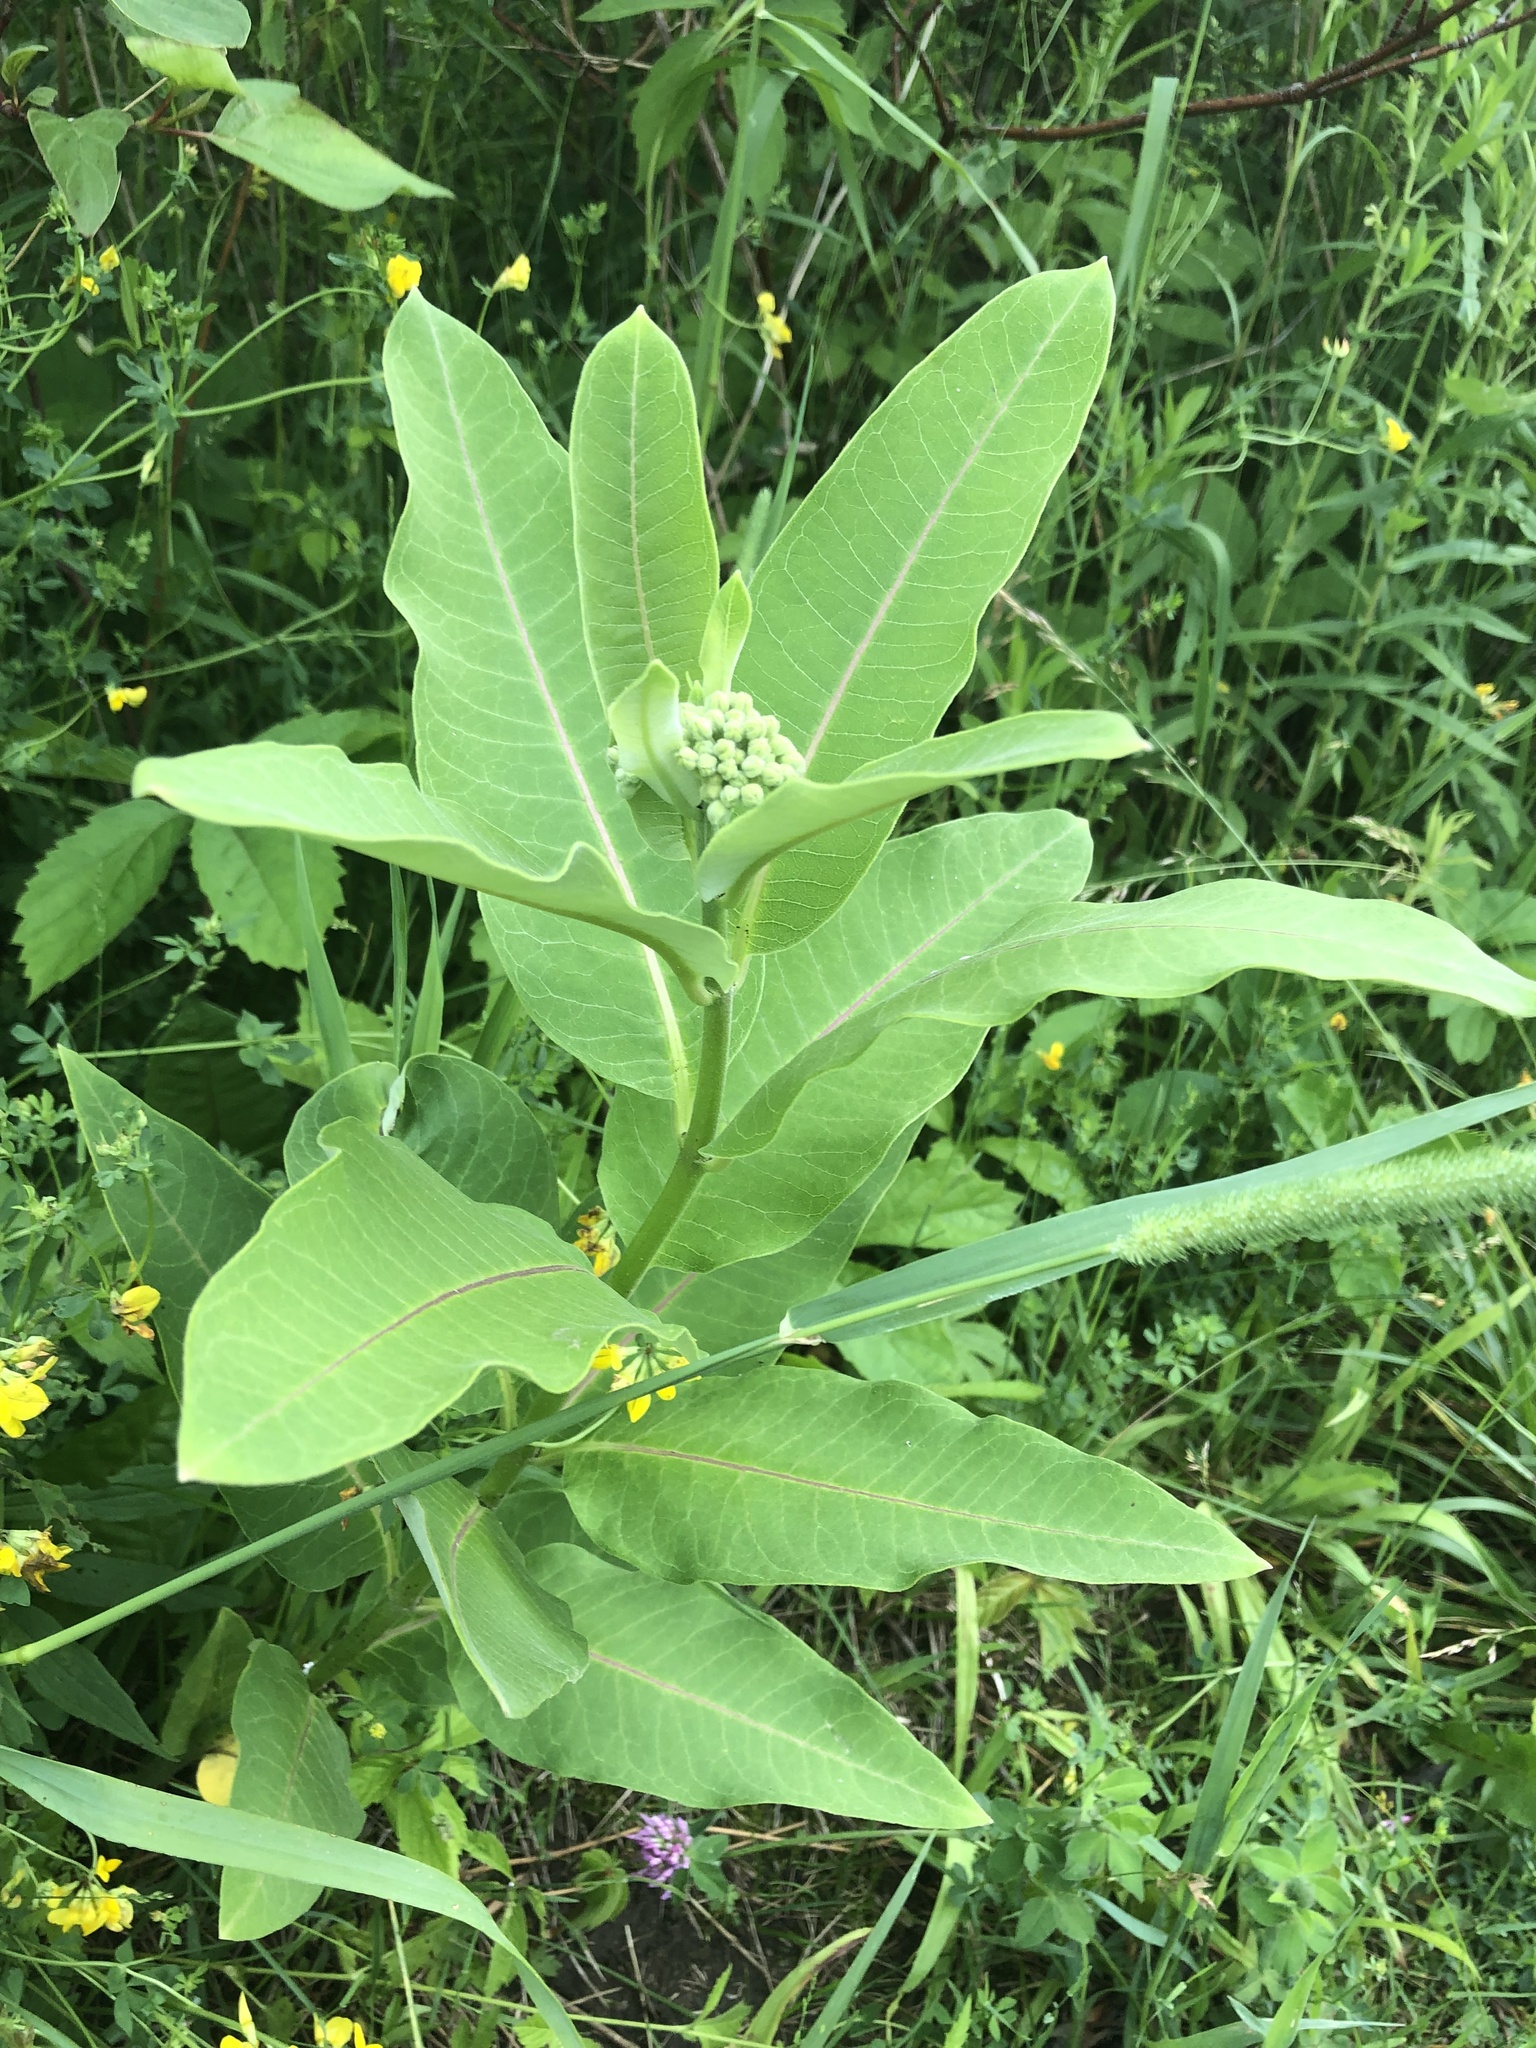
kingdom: Plantae
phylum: Tracheophyta
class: Magnoliopsida
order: Gentianales
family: Apocynaceae
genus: Asclepias
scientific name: Asclepias syriaca
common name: Common milkweed
